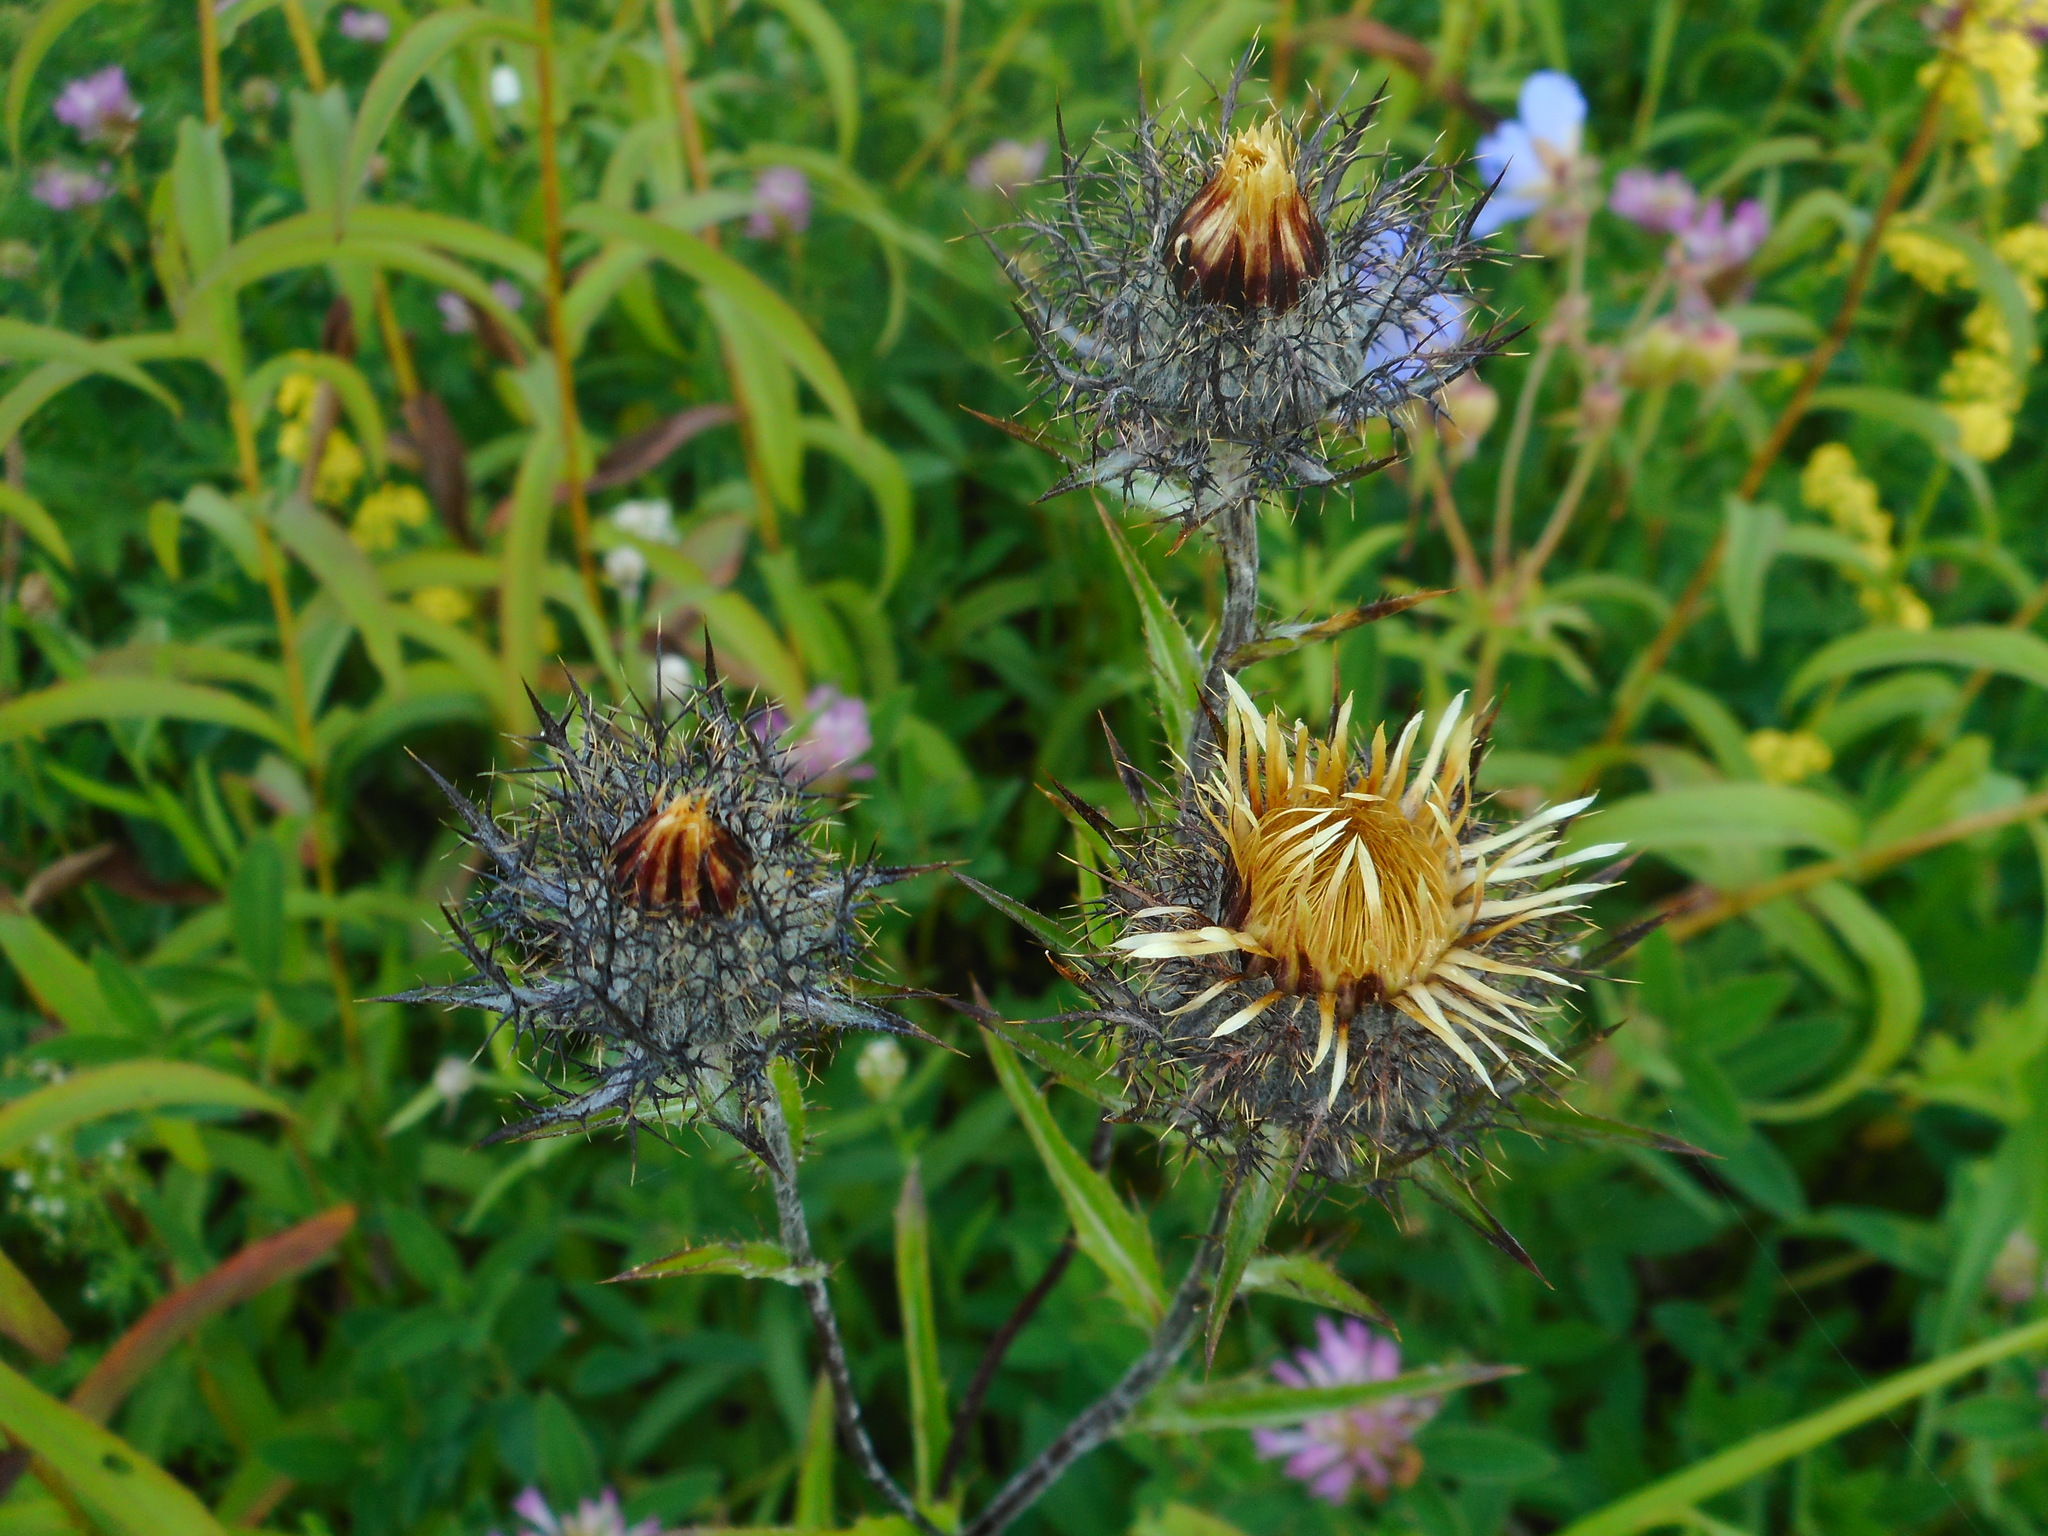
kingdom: Plantae
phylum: Tracheophyta
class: Magnoliopsida
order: Asterales
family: Asteraceae
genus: Carlina
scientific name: Carlina biebersteinii
